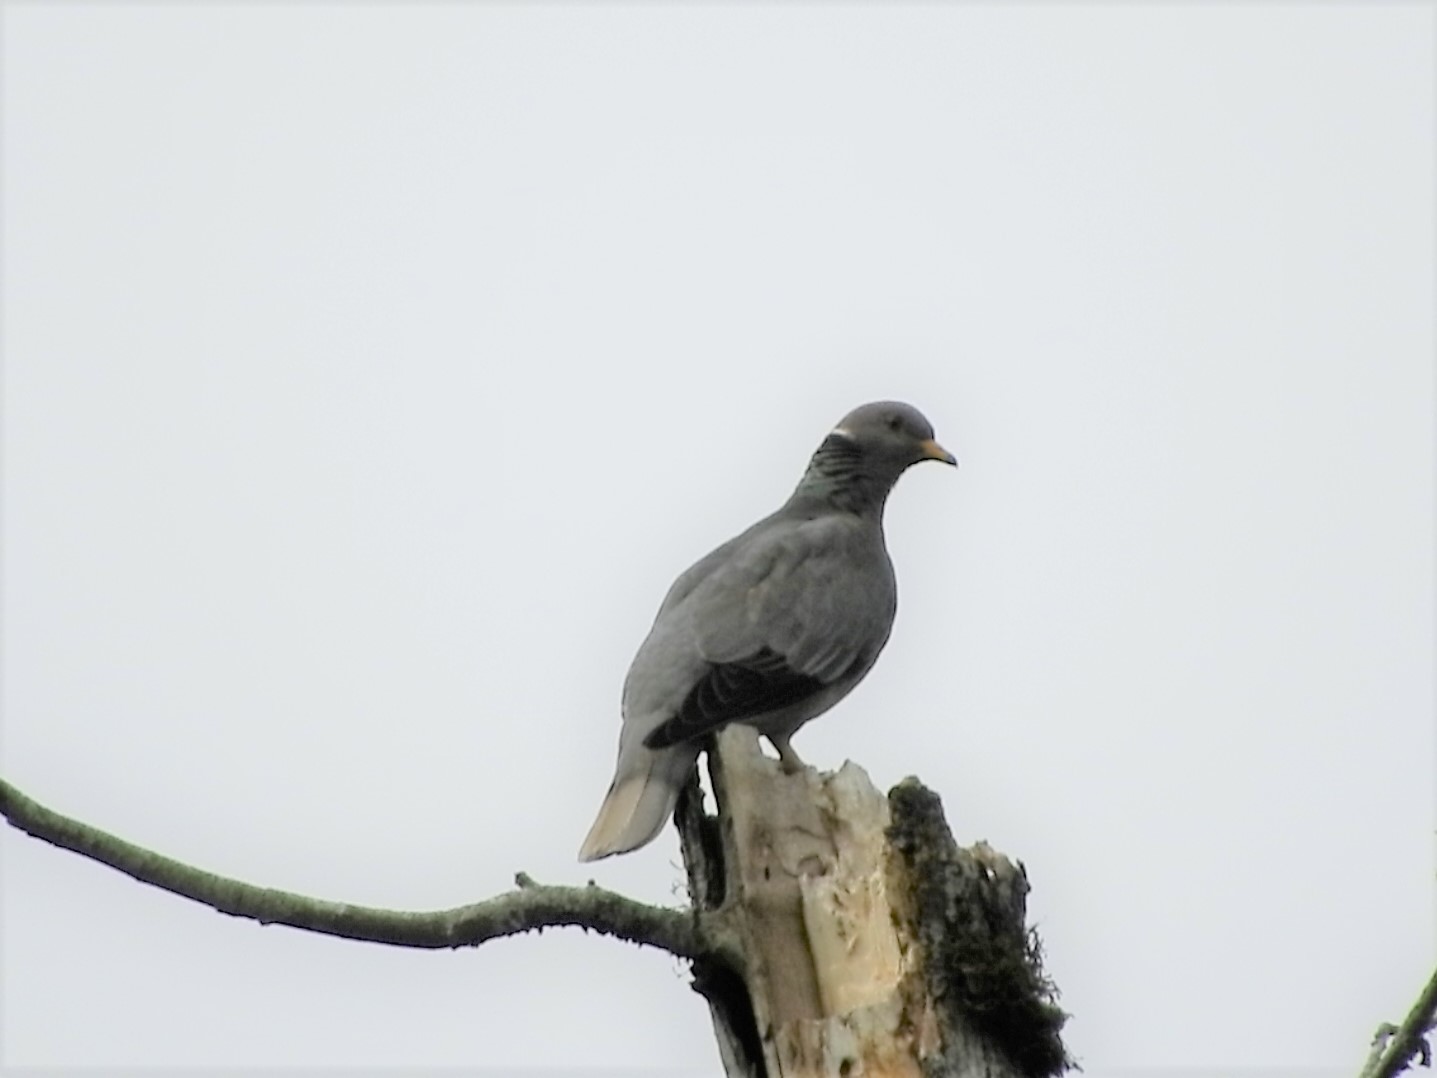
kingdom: Animalia
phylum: Chordata
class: Aves
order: Columbiformes
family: Columbidae
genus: Patagioenas
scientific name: Patagioenas fasciata
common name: Band-tailed pigeon
